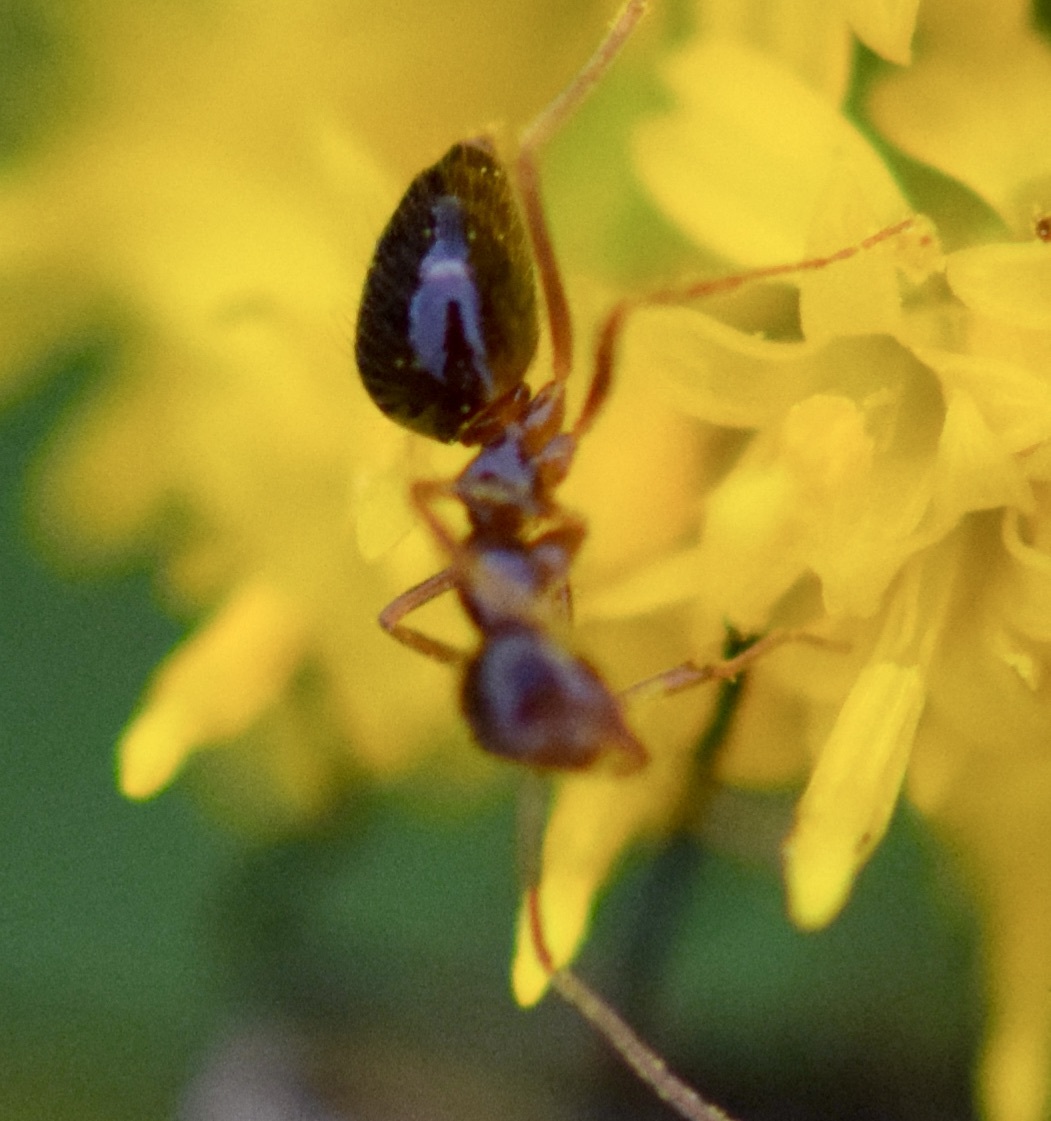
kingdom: Animalia
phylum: Arthropoda
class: Insecta
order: Hymenoptera
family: Formicidae
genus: Prenolepis
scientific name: Prenolepis imparis
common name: Small honey ant
